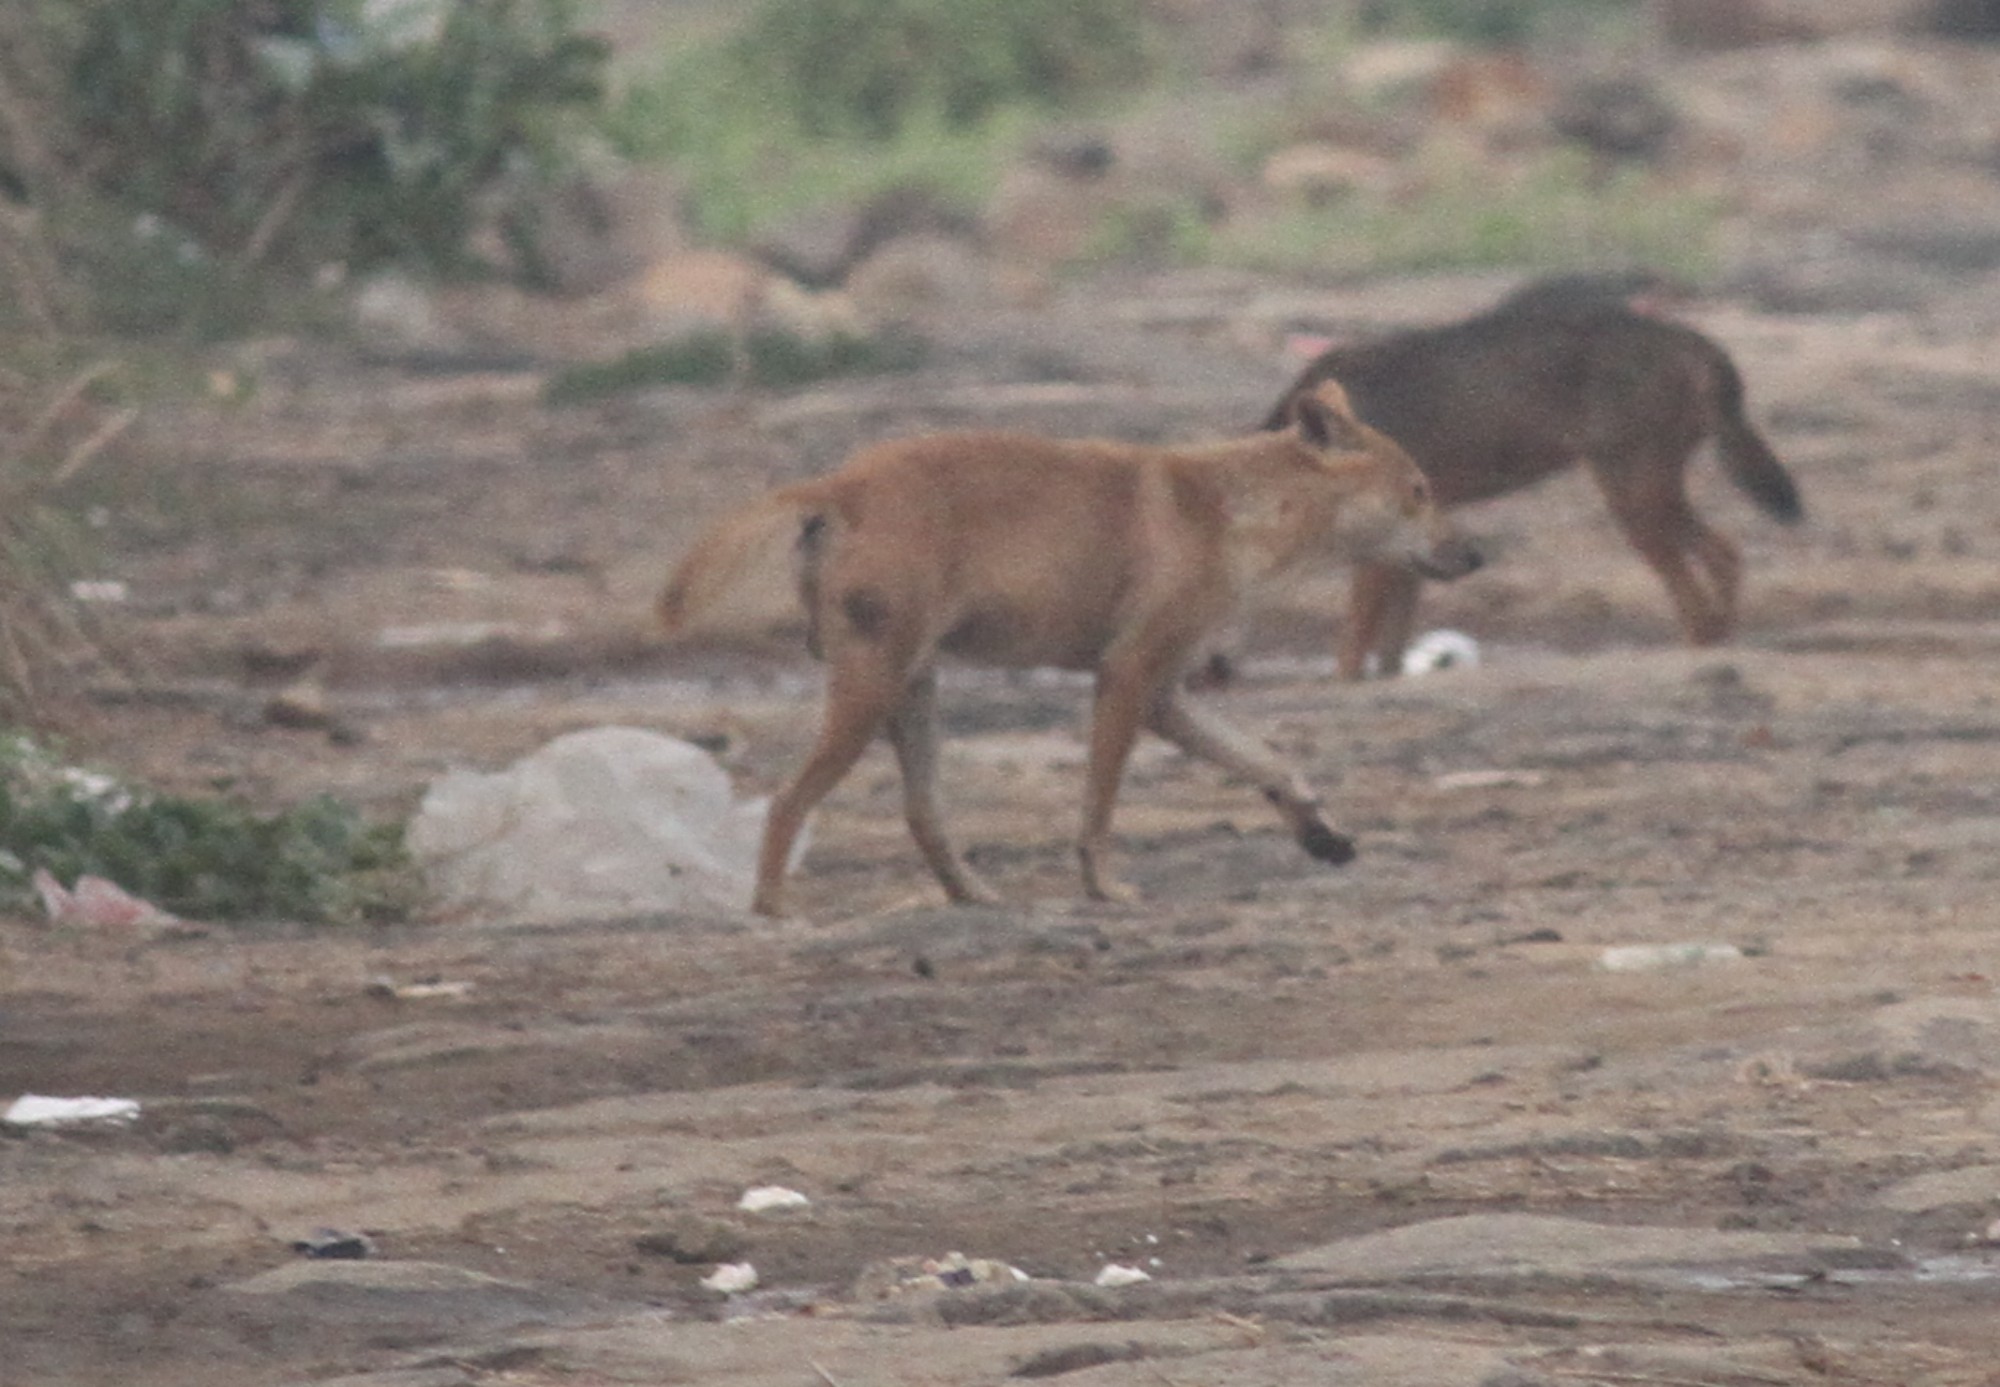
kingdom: Animalia
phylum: Chordata
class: Mammalia
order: Carnivora
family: Canidae
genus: Canis
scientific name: Canis lupus
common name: Gray wolf
